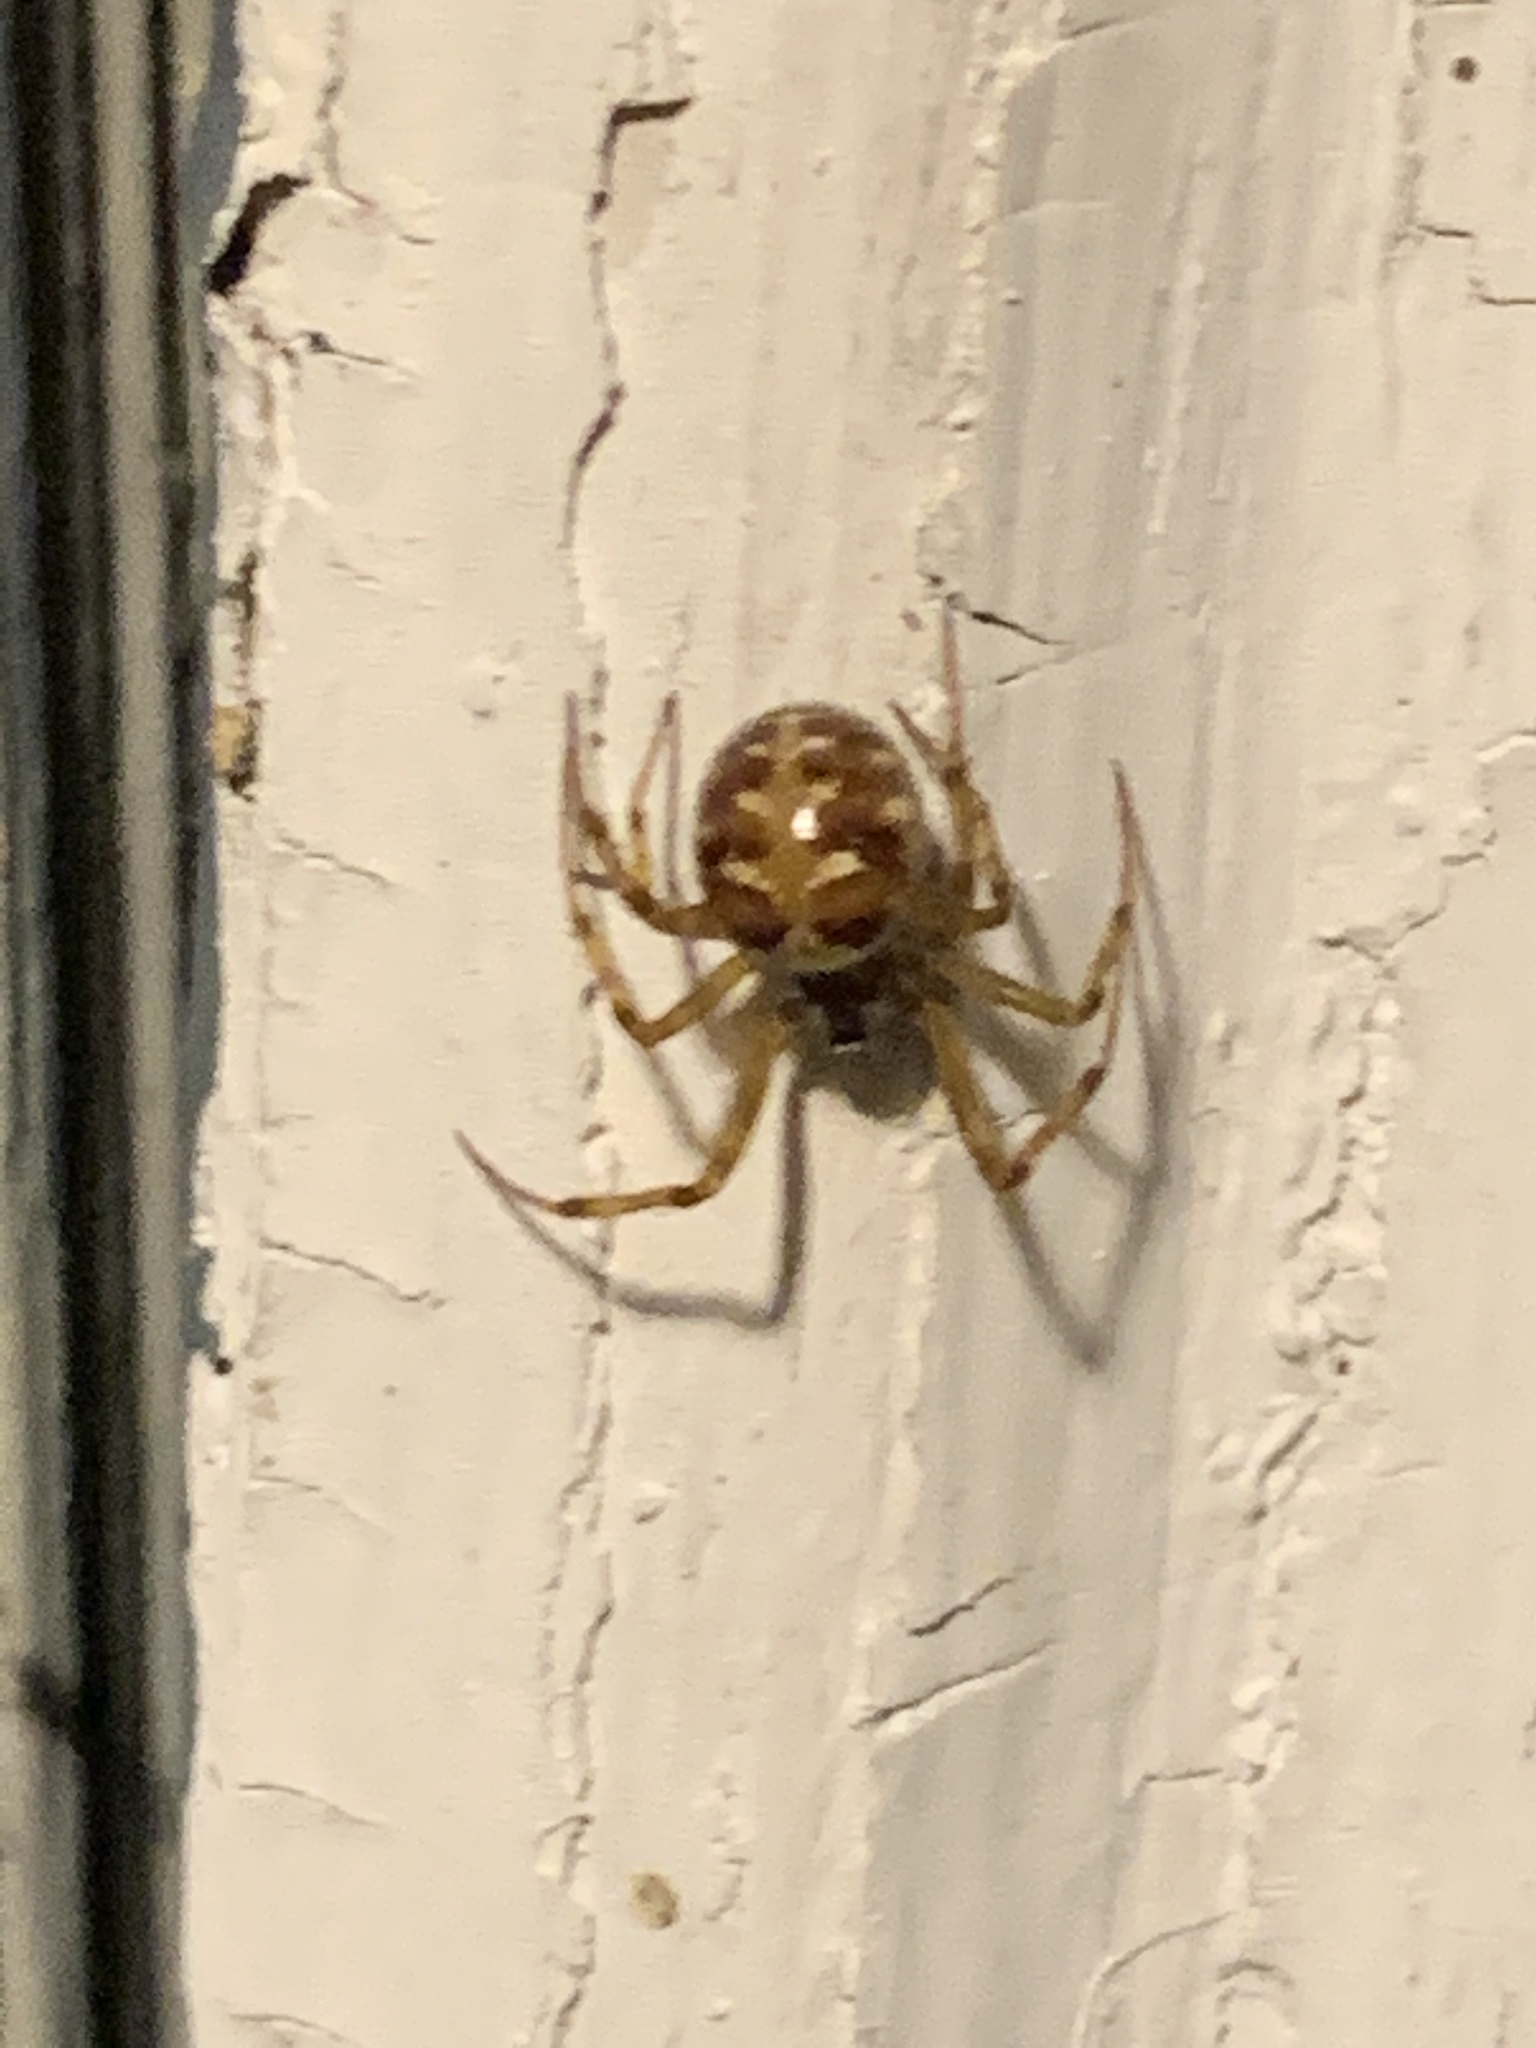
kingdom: Animalia
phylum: Arthropoda
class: Arachnida
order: Araneae
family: Theridiidae
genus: Steatoda
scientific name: Steatoda triangulosa
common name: Triangulate bud spider
